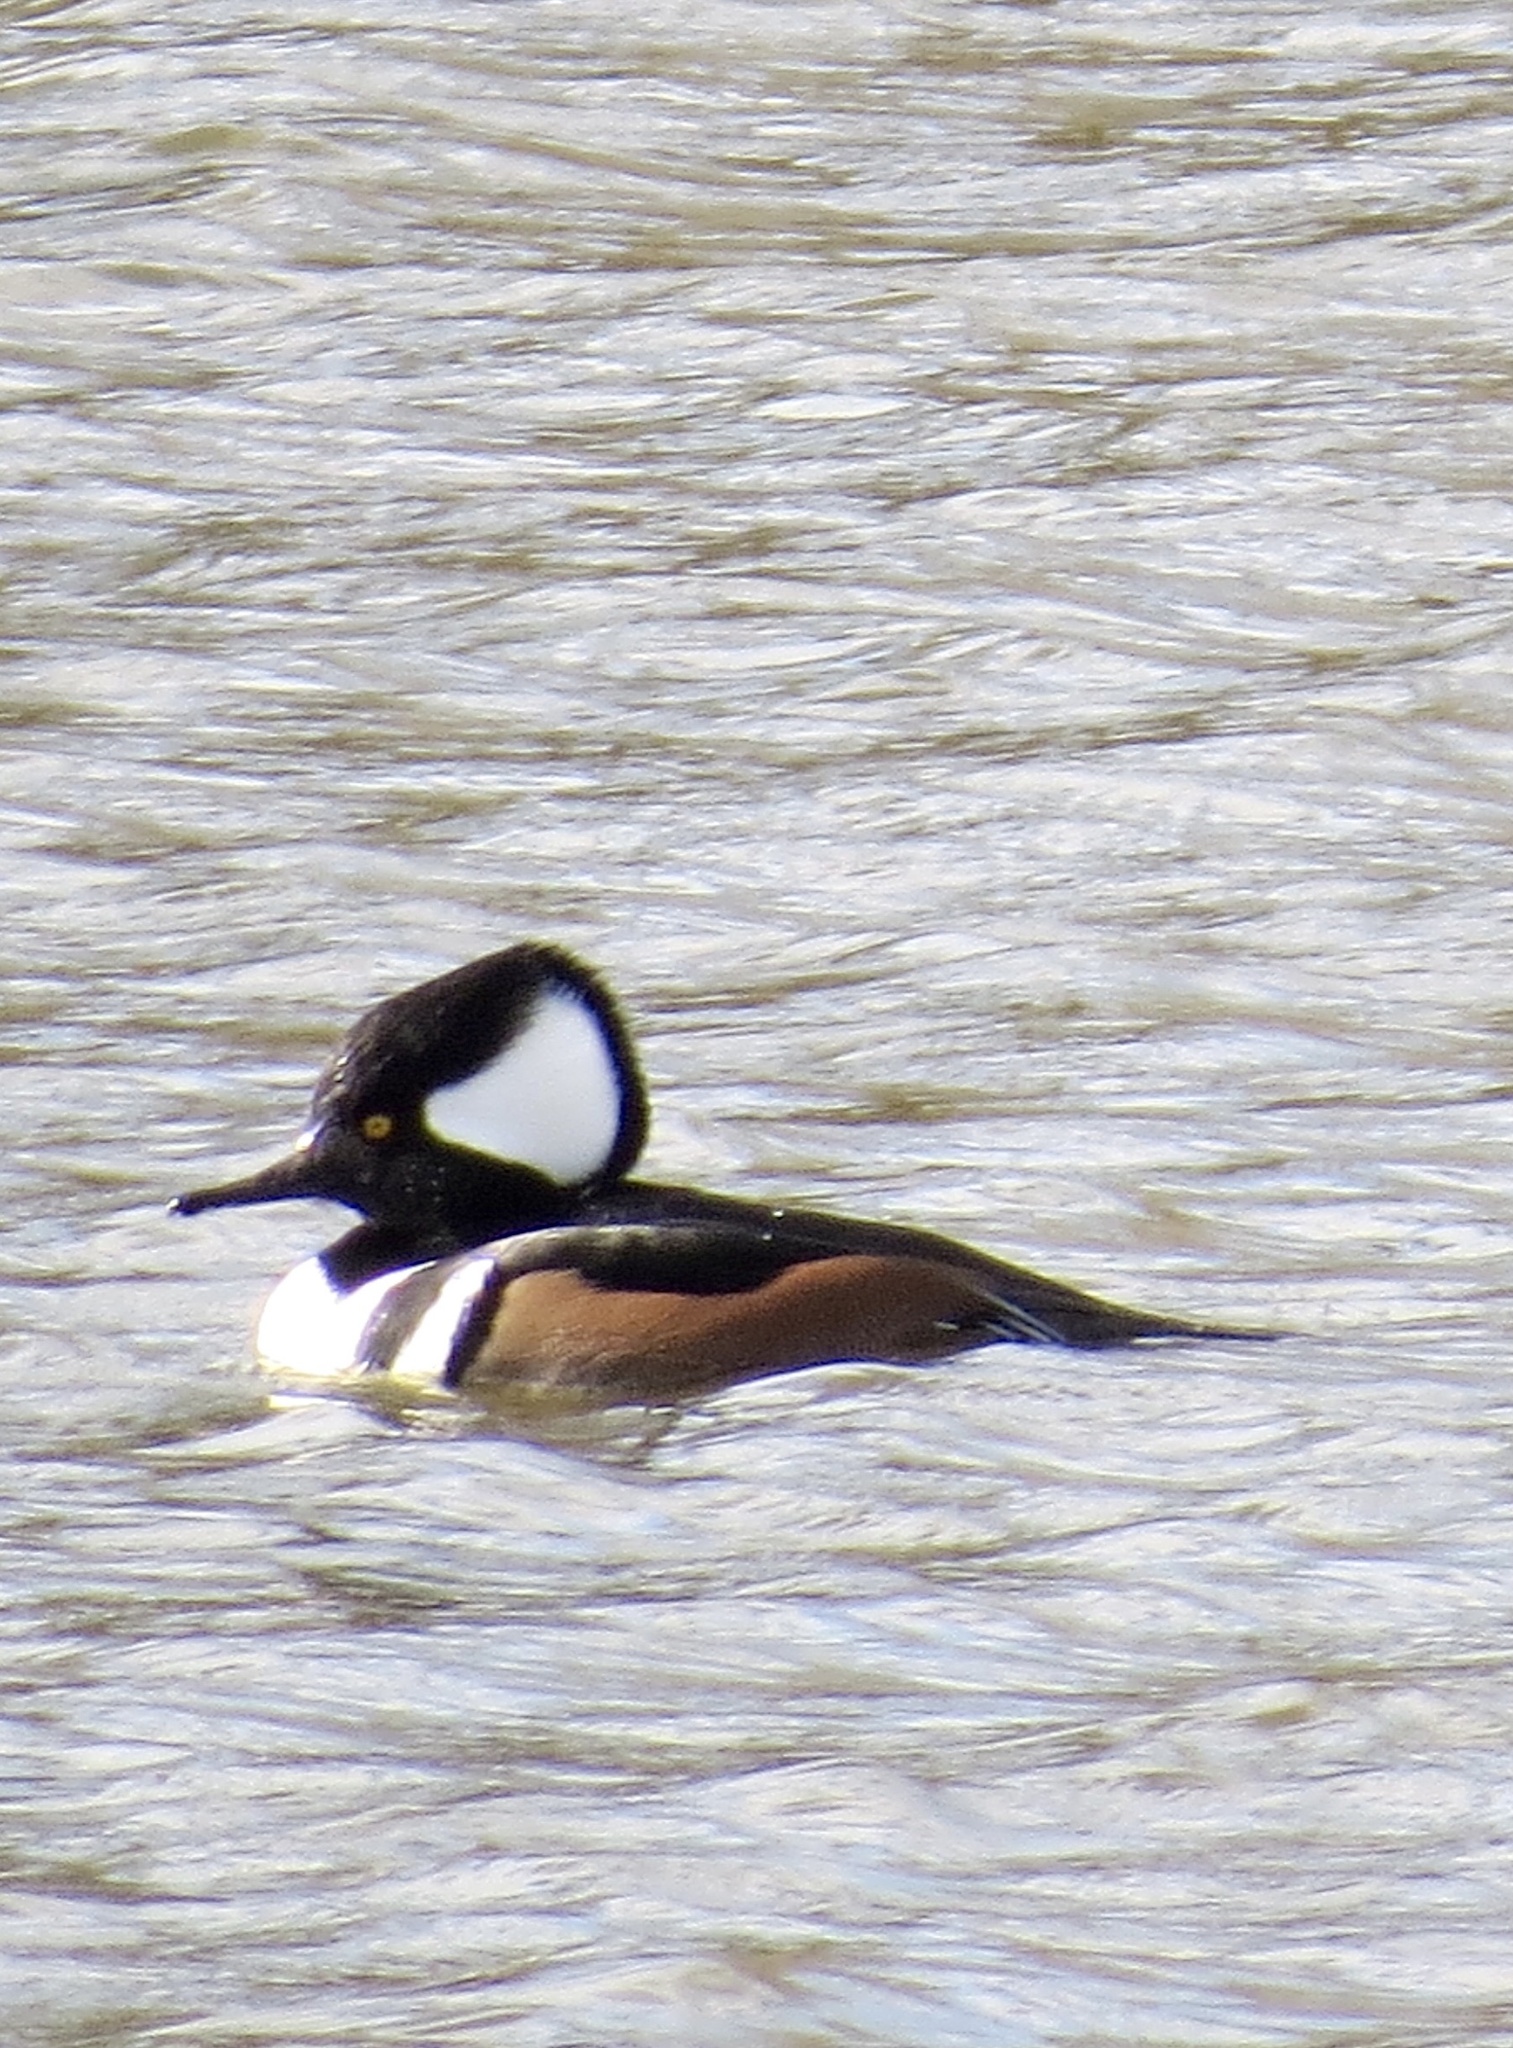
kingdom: Animalia
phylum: Chordata
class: Aves
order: Anseriformes
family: Anatidae
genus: Lophodytes
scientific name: Lophodytes cucullatus
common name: Hooded merganser
